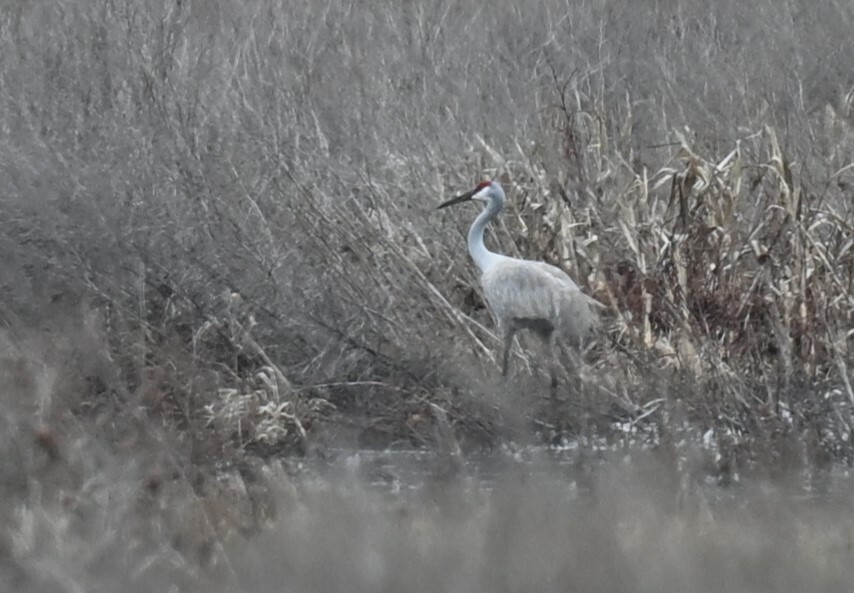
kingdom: Animalia
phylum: Chordata
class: Aves
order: Gruiformes
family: Gruidae
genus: Grus
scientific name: Grus canadensis
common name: Sandhill crane
